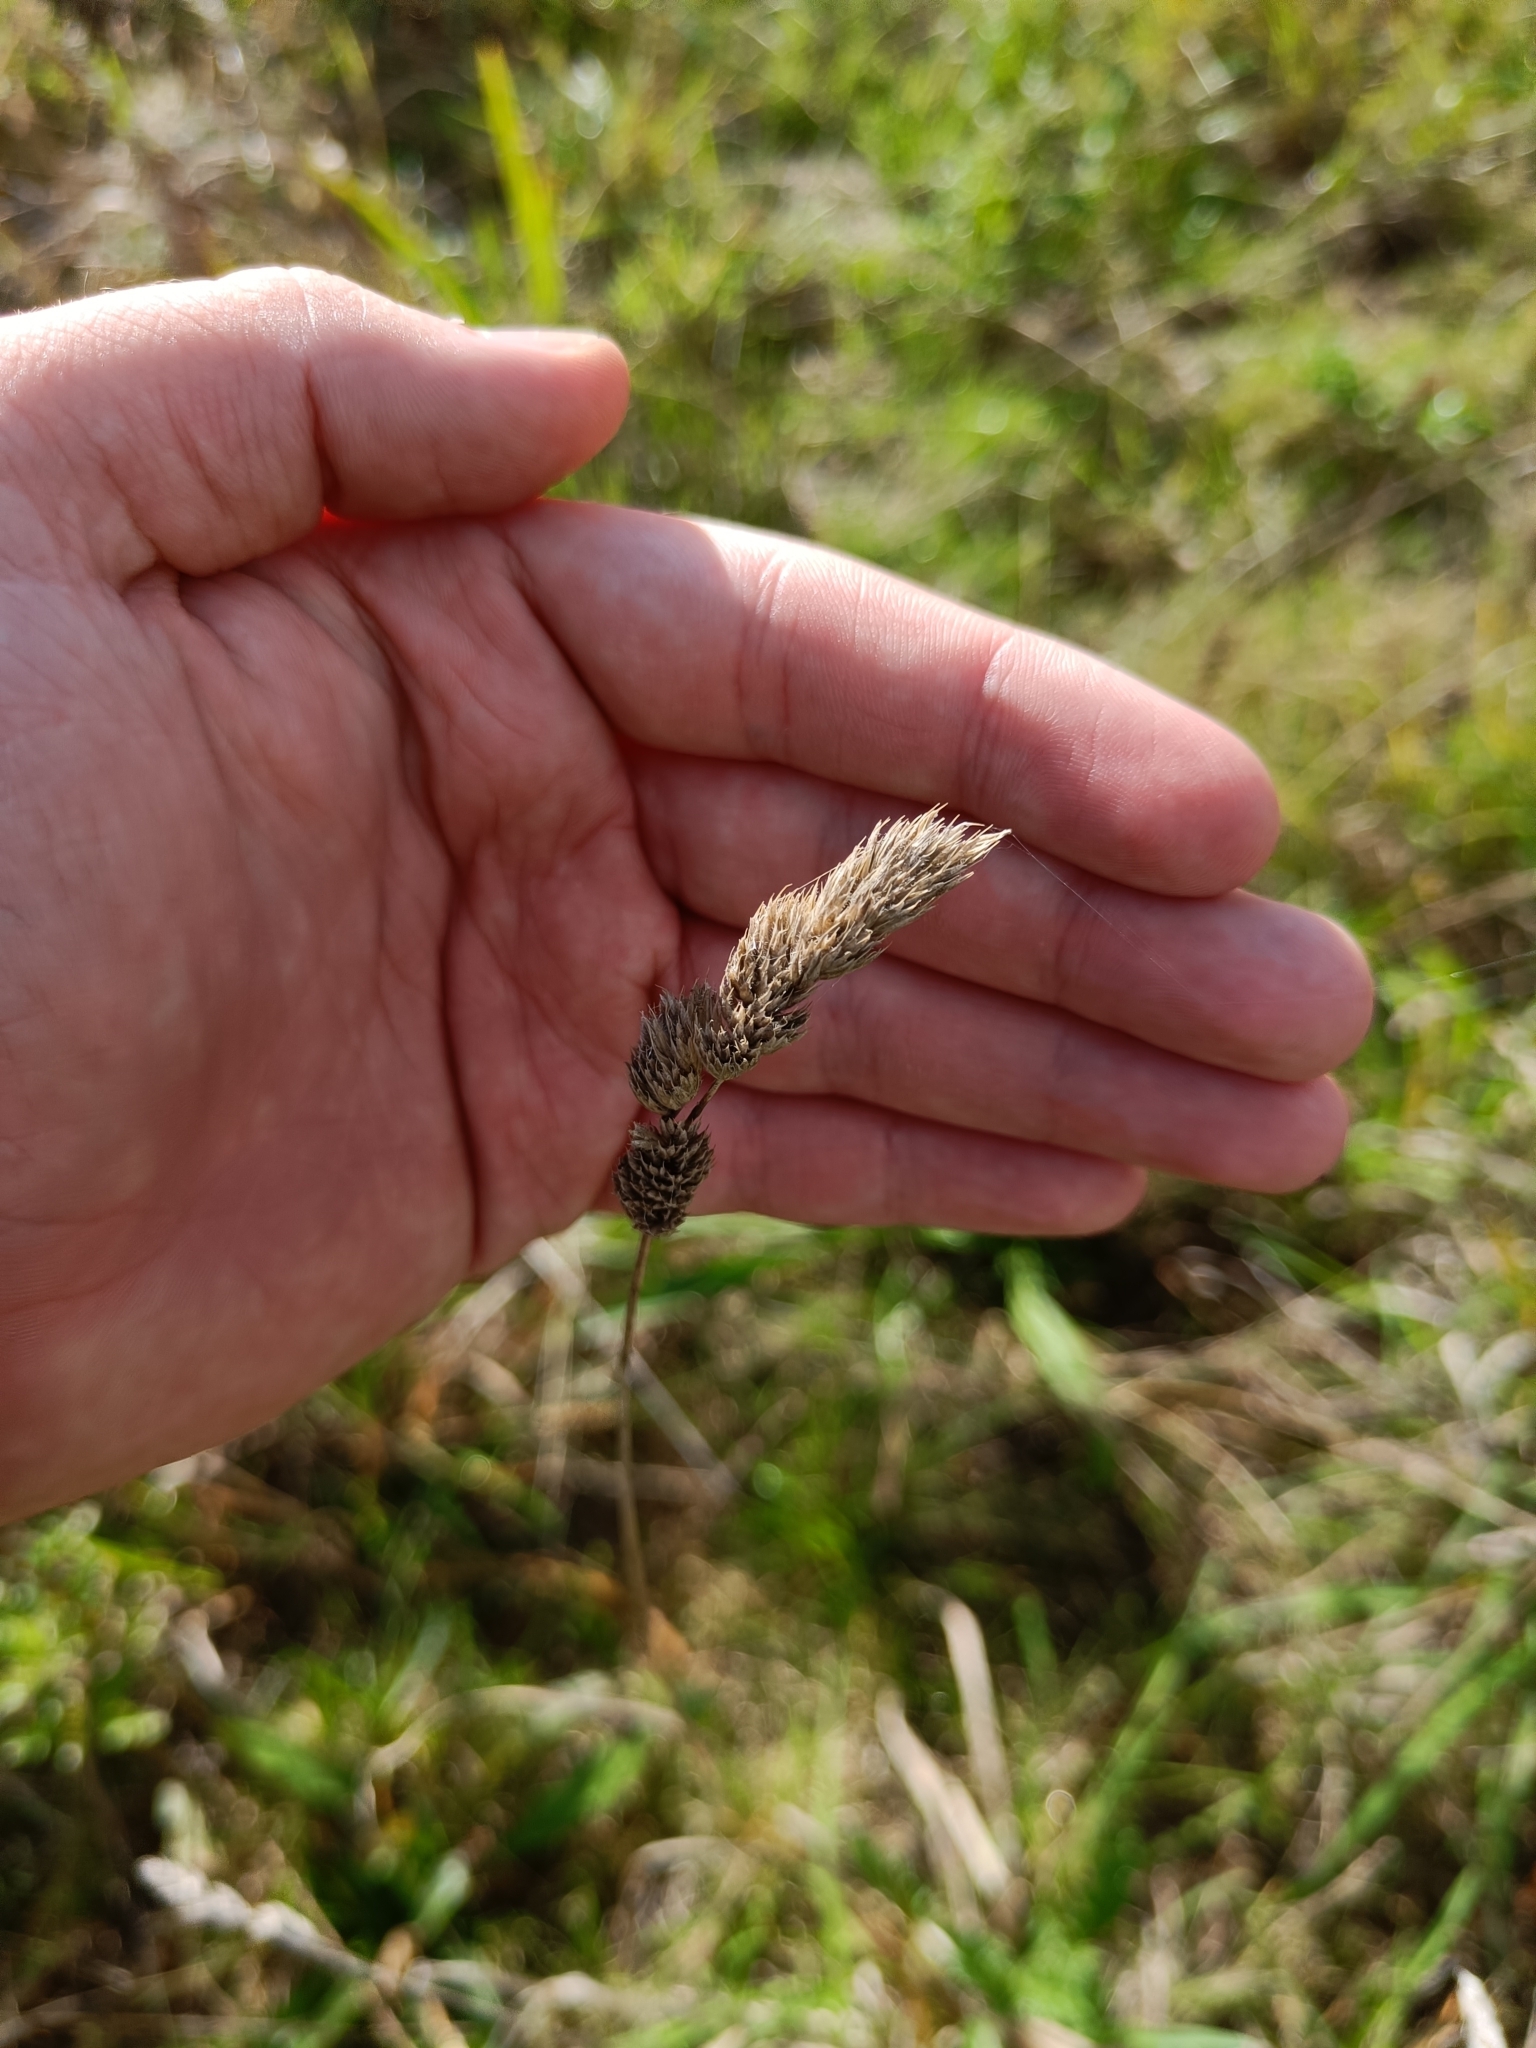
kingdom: Plantae
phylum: Tracheophyta
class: Liliopsida
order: Poales
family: Poaceae
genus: Dactylis
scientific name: Dactylis glomerata
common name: Orchardgrass
